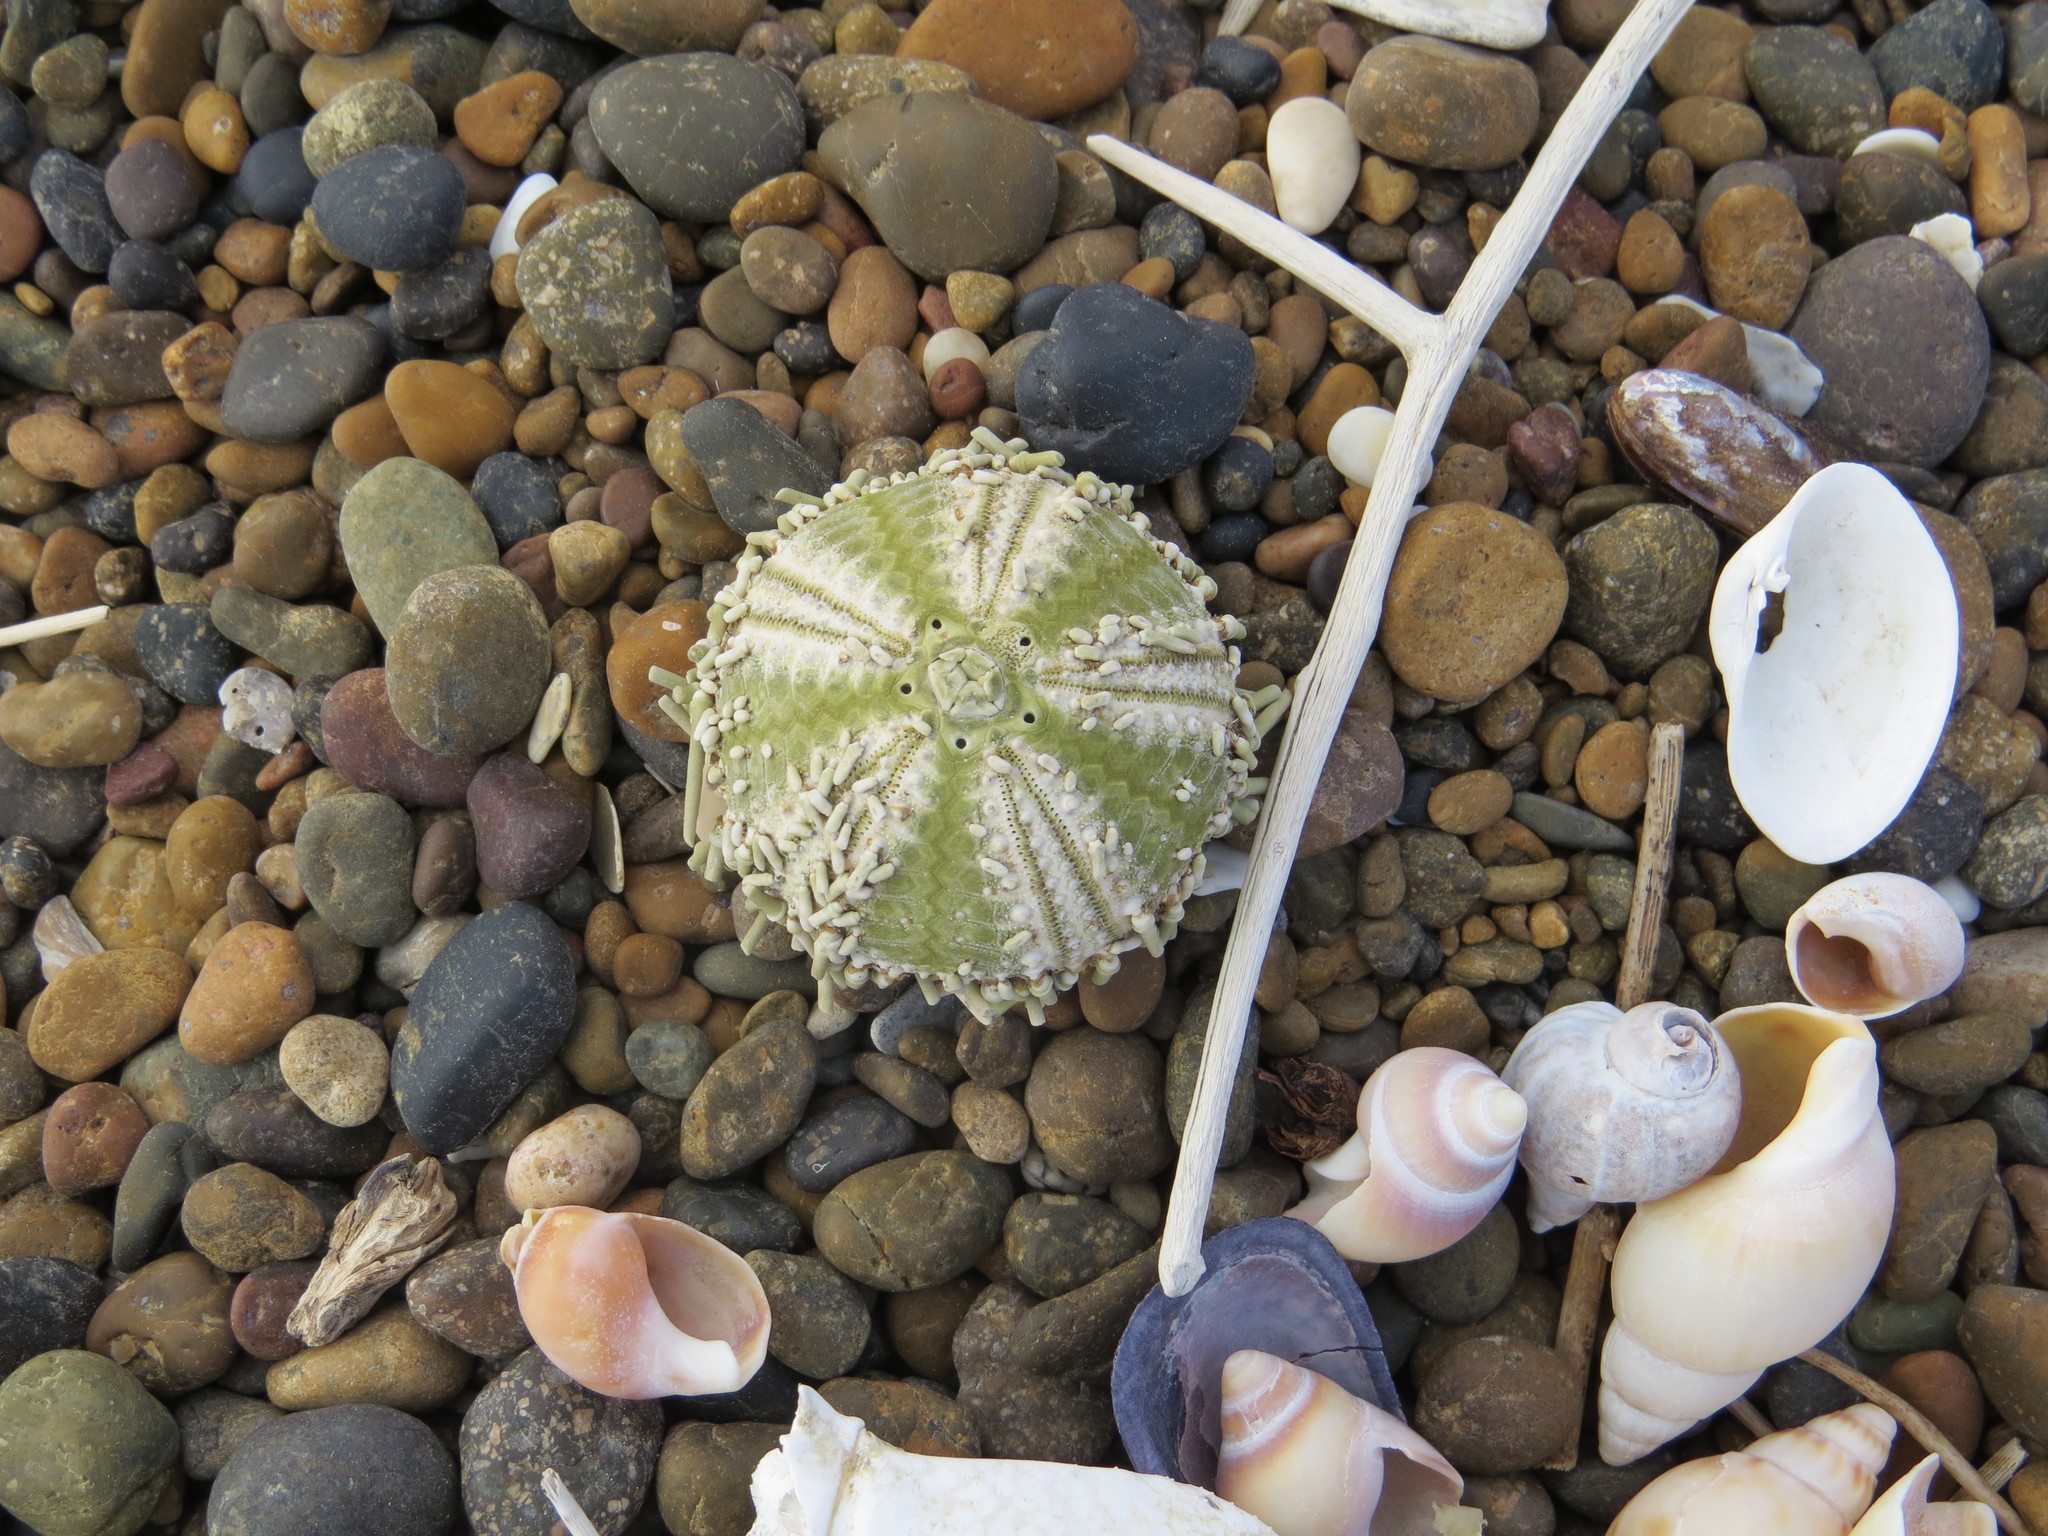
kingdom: Animalia
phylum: Echinodermata
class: Echinoidea
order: Arbacioida
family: Arbaciidae
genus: Arbacia
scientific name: Arbacia dufresnii
